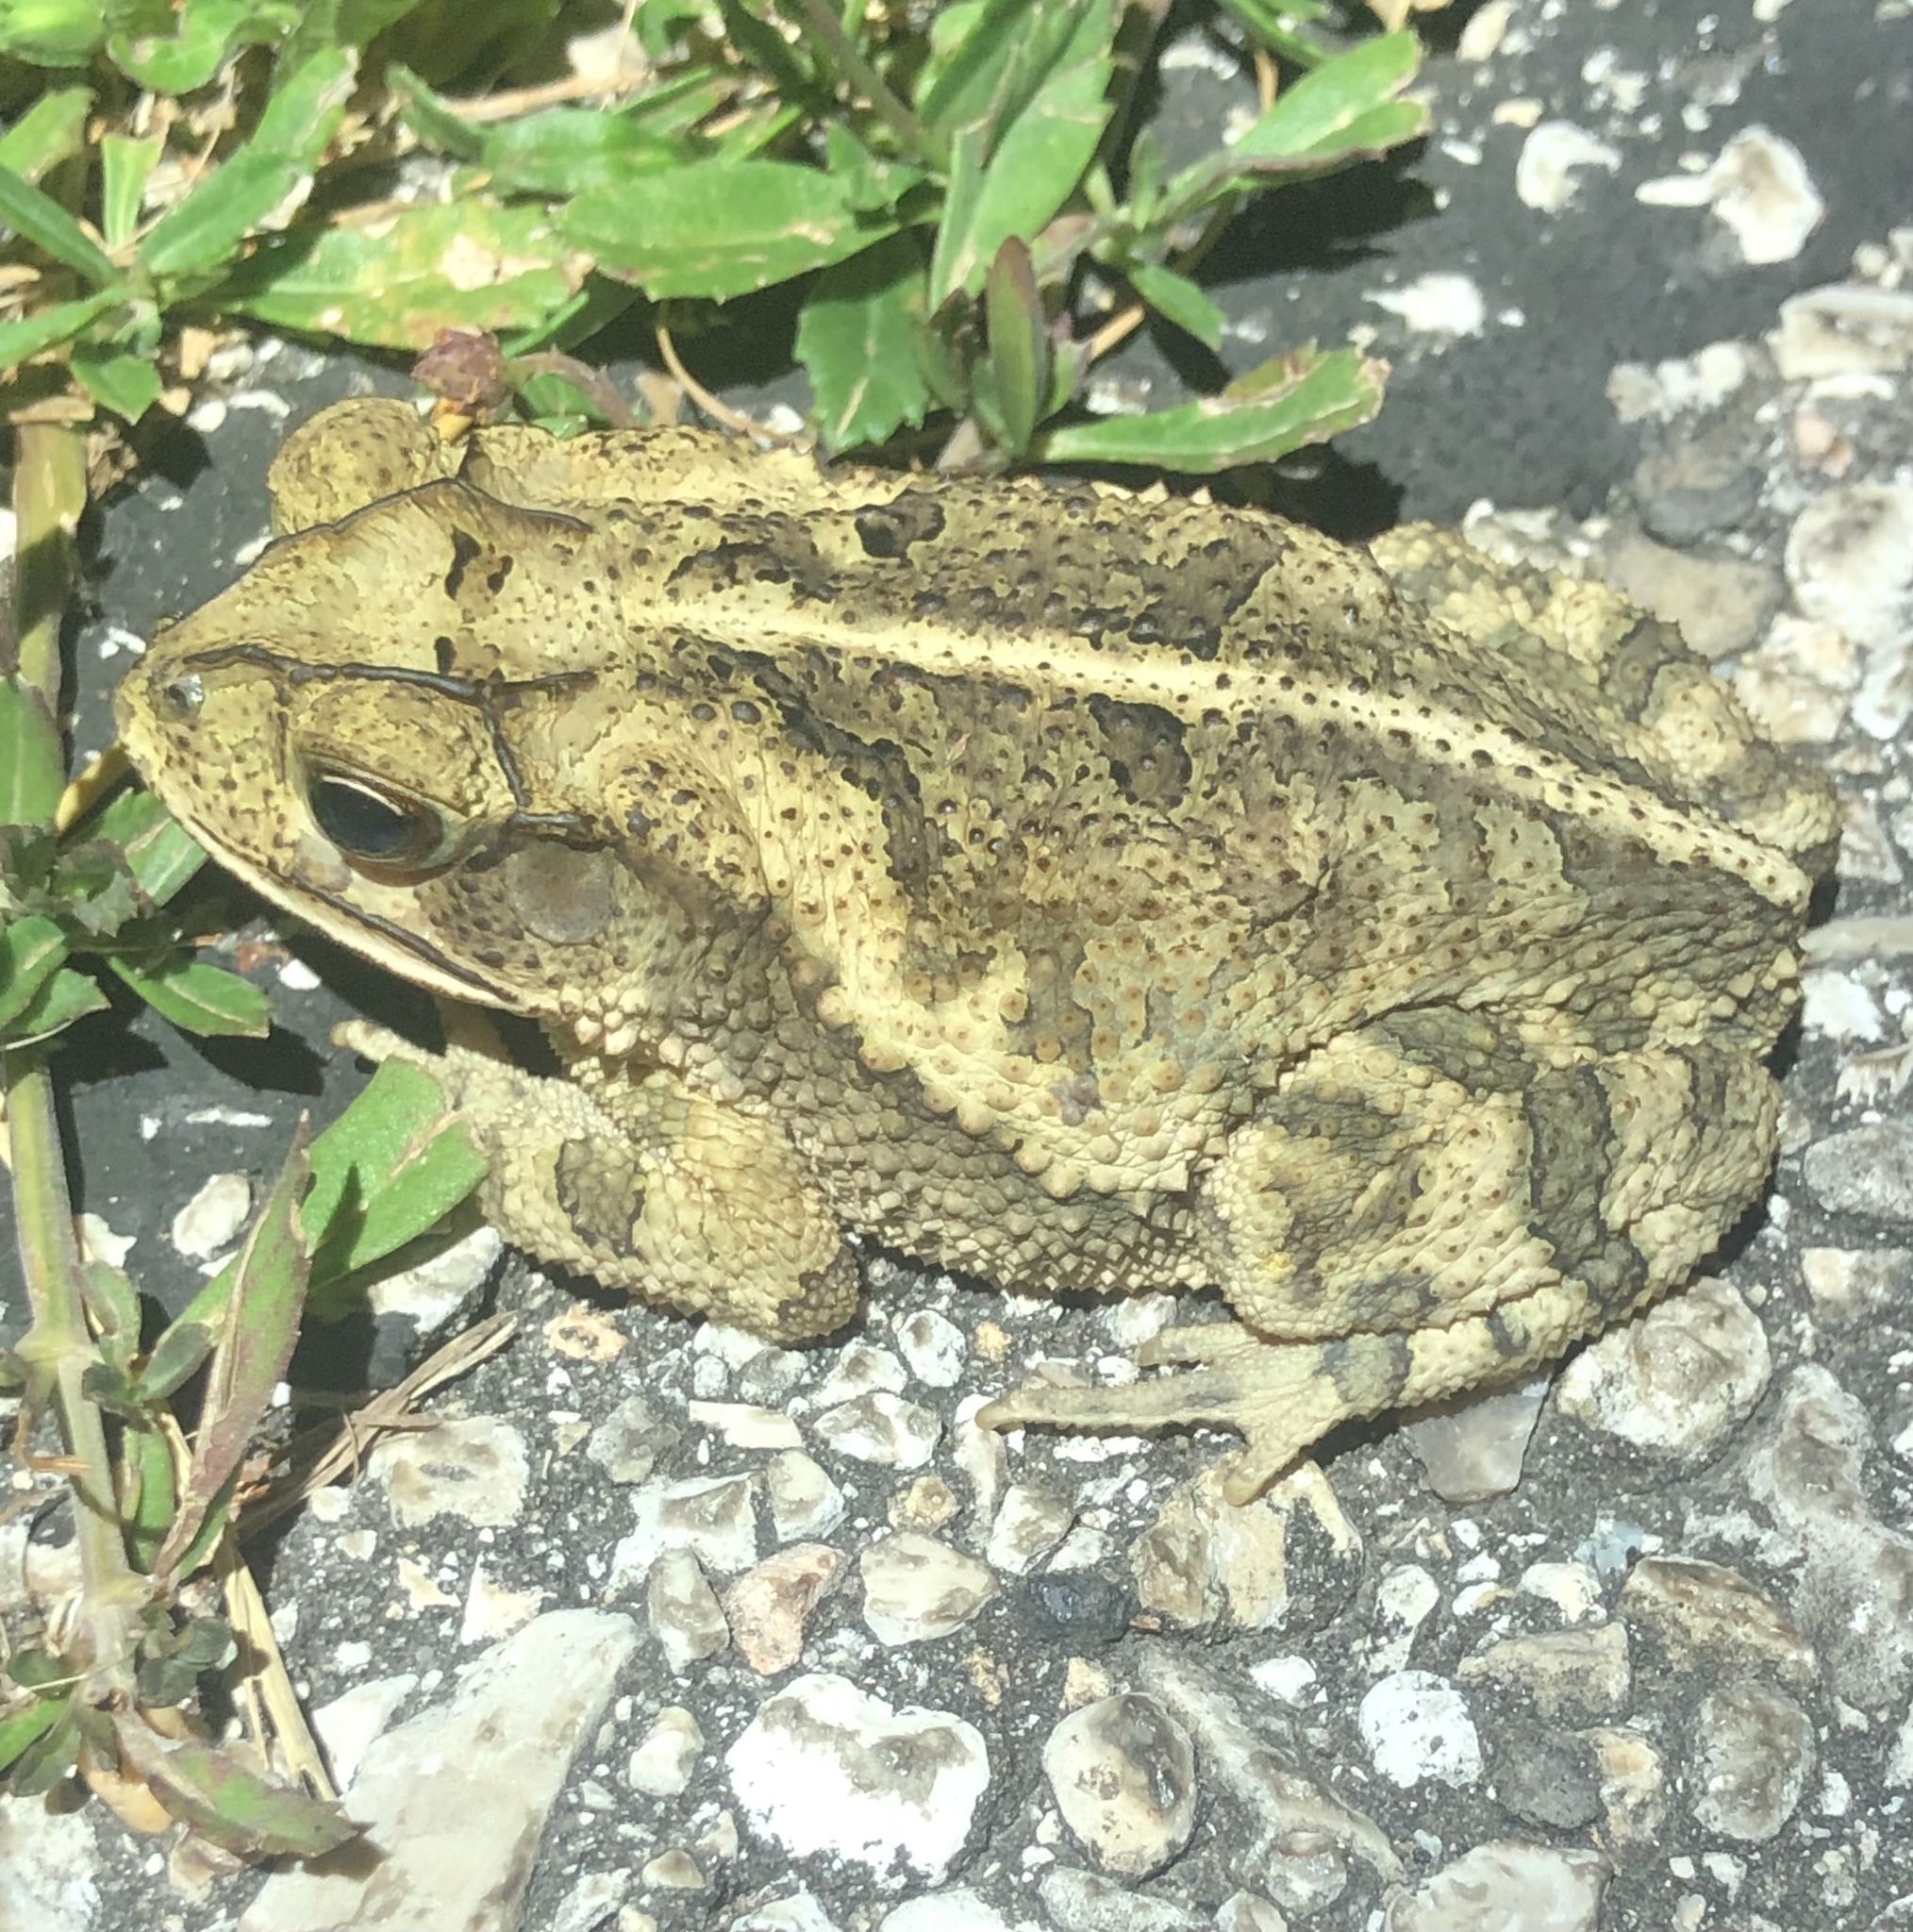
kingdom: Animalia
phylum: Chordata
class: Amphibia
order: Anura
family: Bufonidae
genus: Incilius
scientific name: Incilius nebulifer
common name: Gulf coast toad
